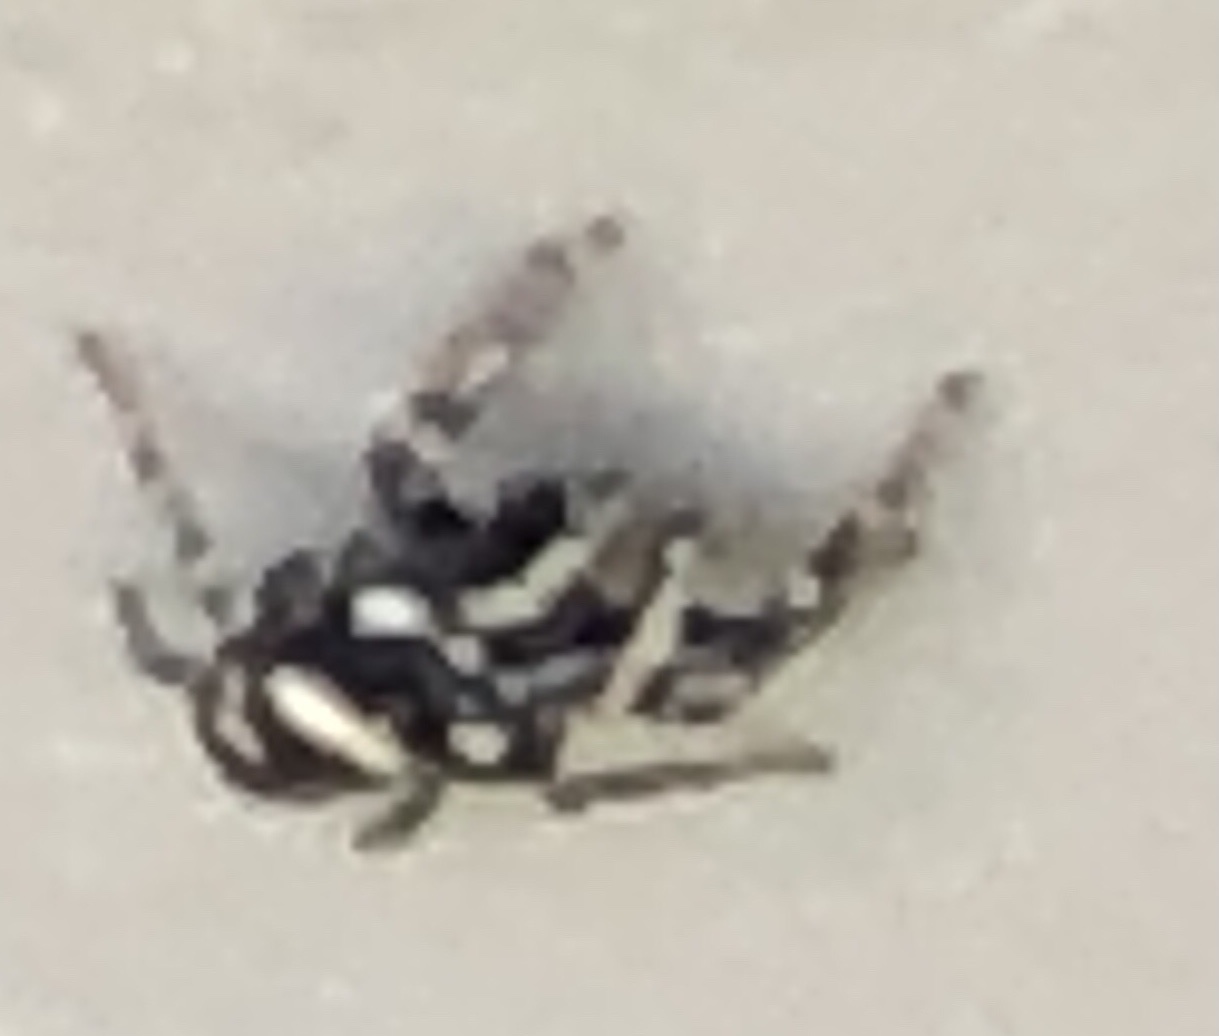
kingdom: Animalia
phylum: Arthropoda
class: Arachnida
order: Araneae
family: Salticidae
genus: Salticus
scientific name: Salticus scenicus
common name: Zebra jumper
